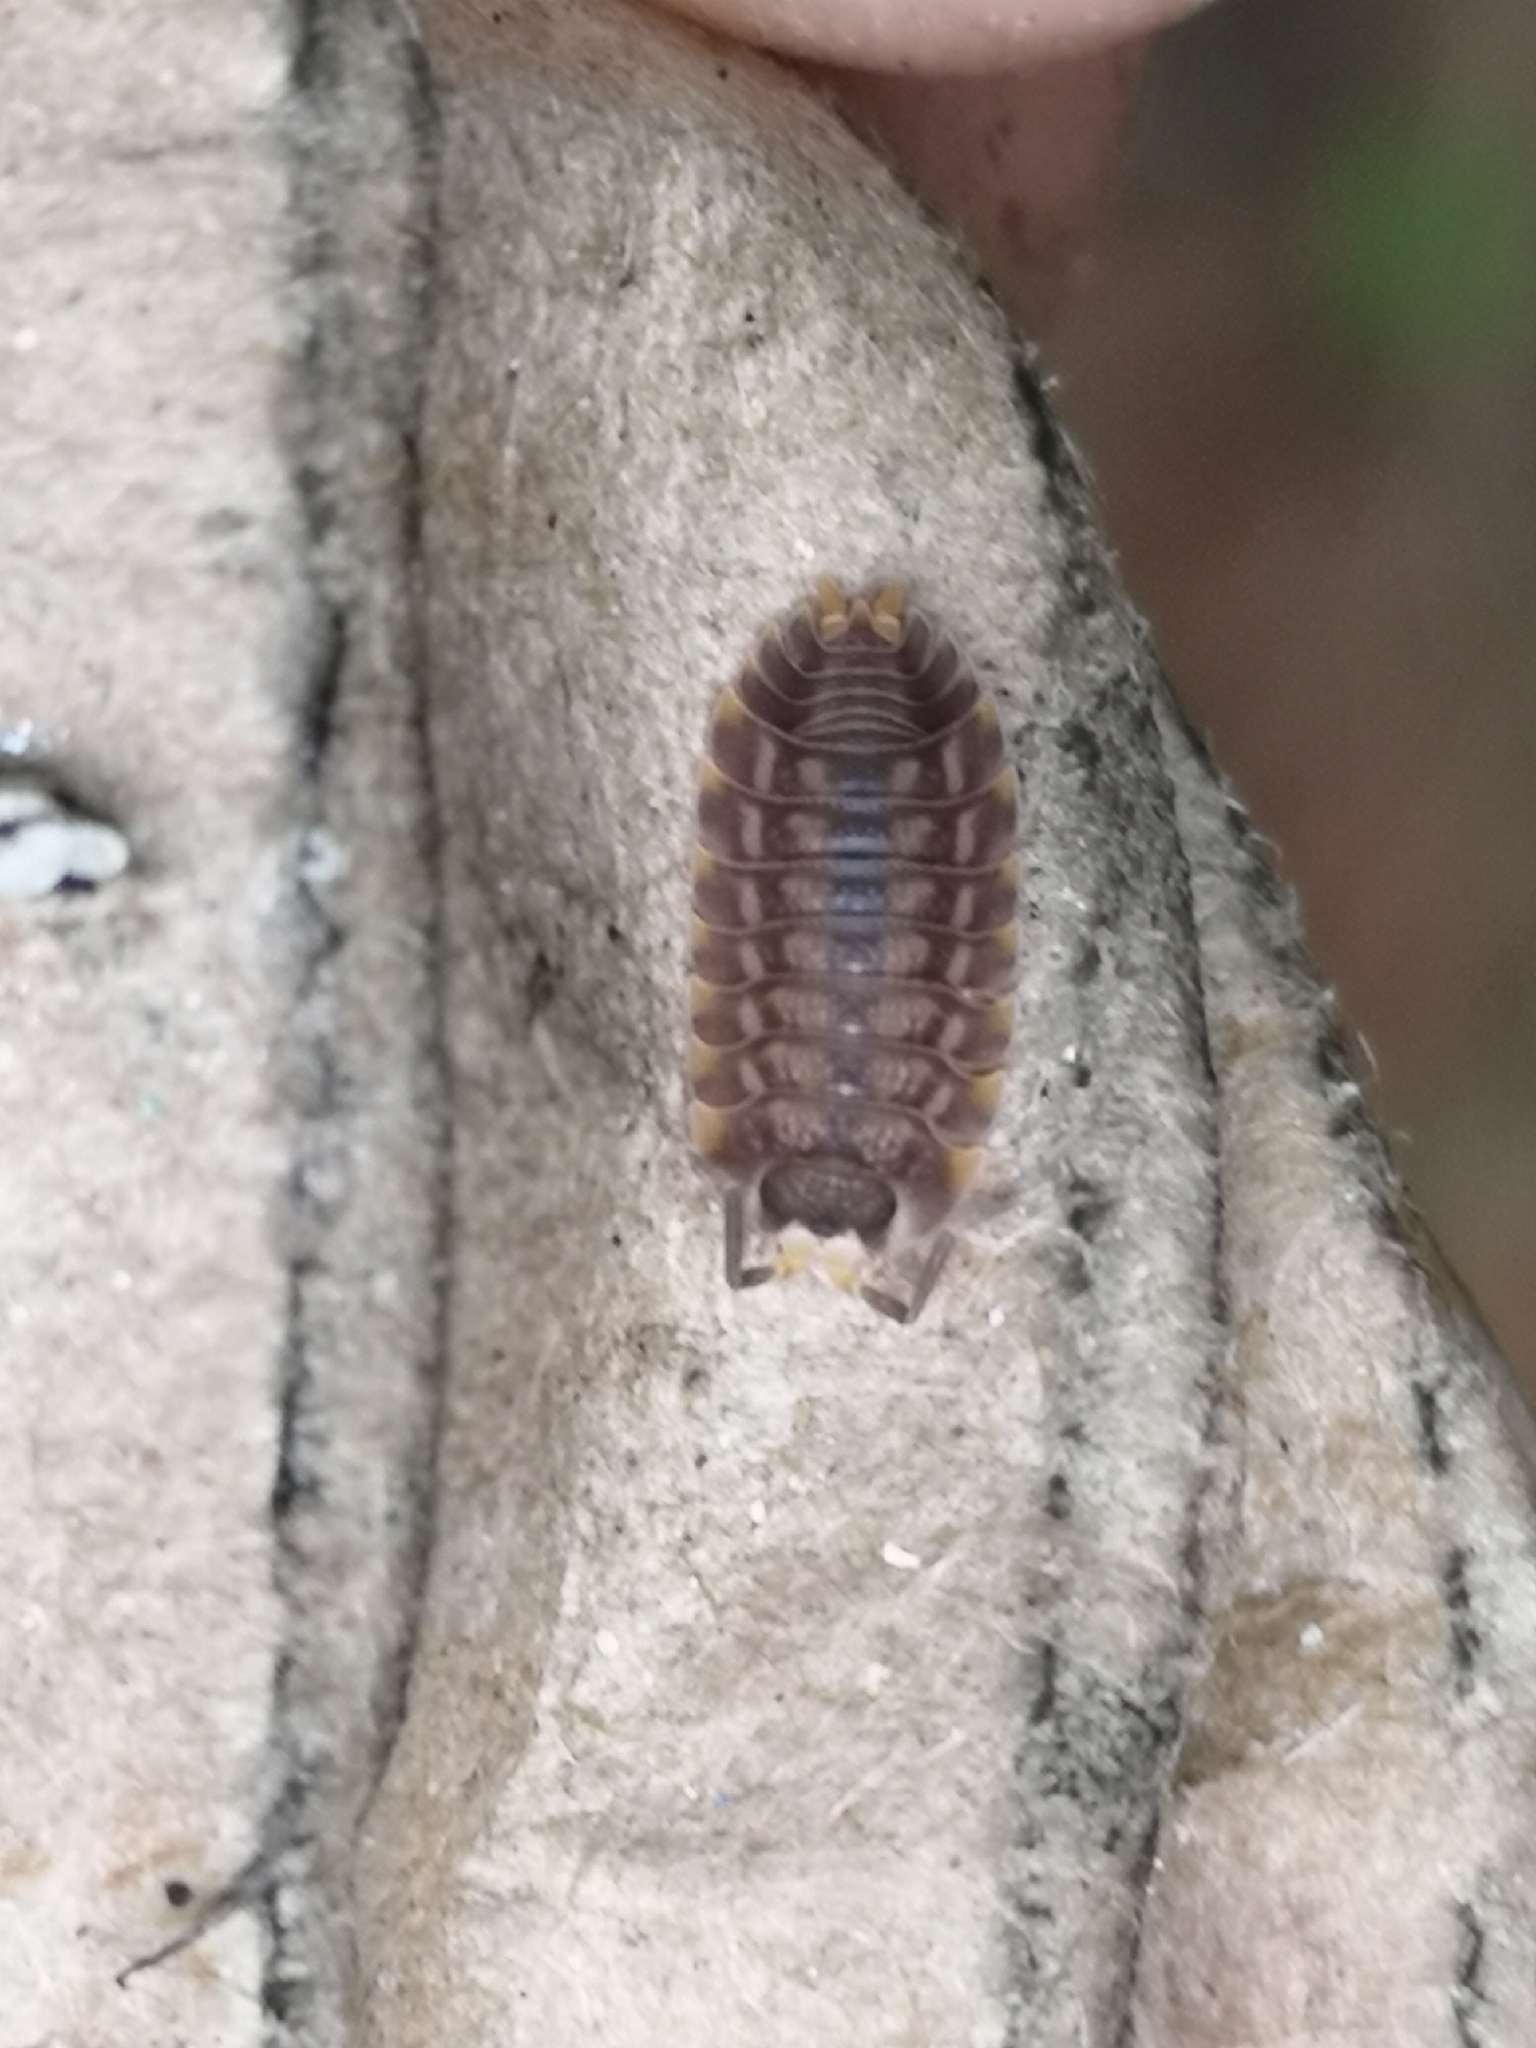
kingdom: Animalia
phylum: Arthropoda
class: Malacostraca
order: Isopoda
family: Trachelipodidae
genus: Trachelipus
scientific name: Trachelipus ratzeburgii
